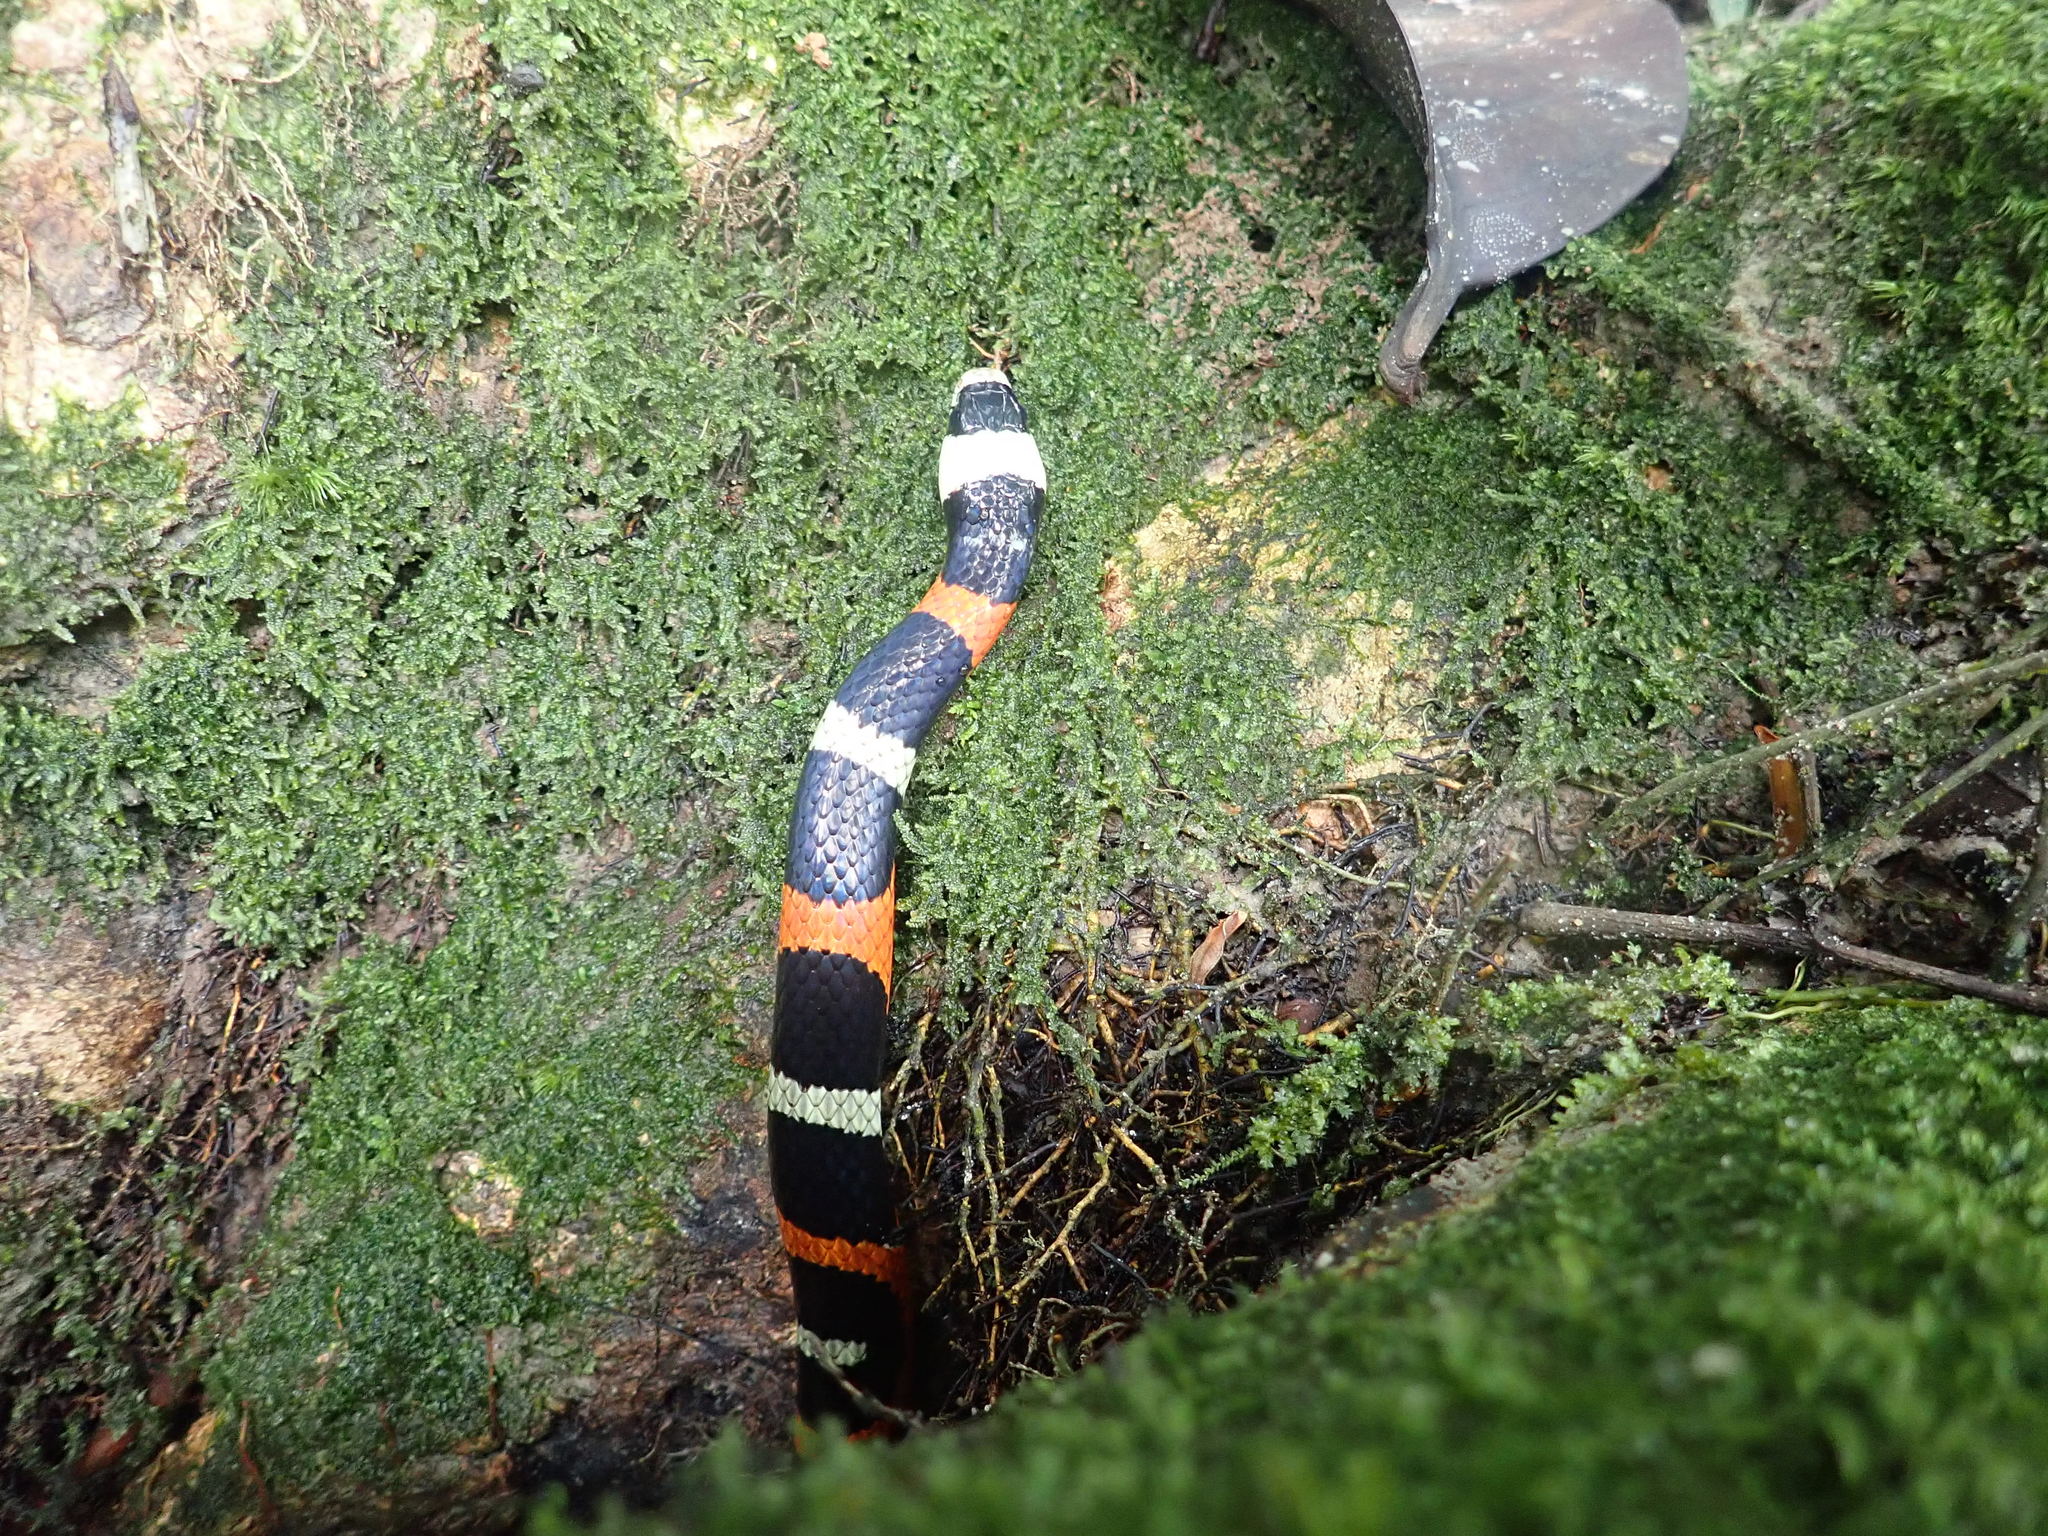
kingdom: Animalia
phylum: Chordata
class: Squamata
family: Colubridae
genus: Erythrolamprus
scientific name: Erythrolamprus aesculapii
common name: Aesculapian false coral snake
